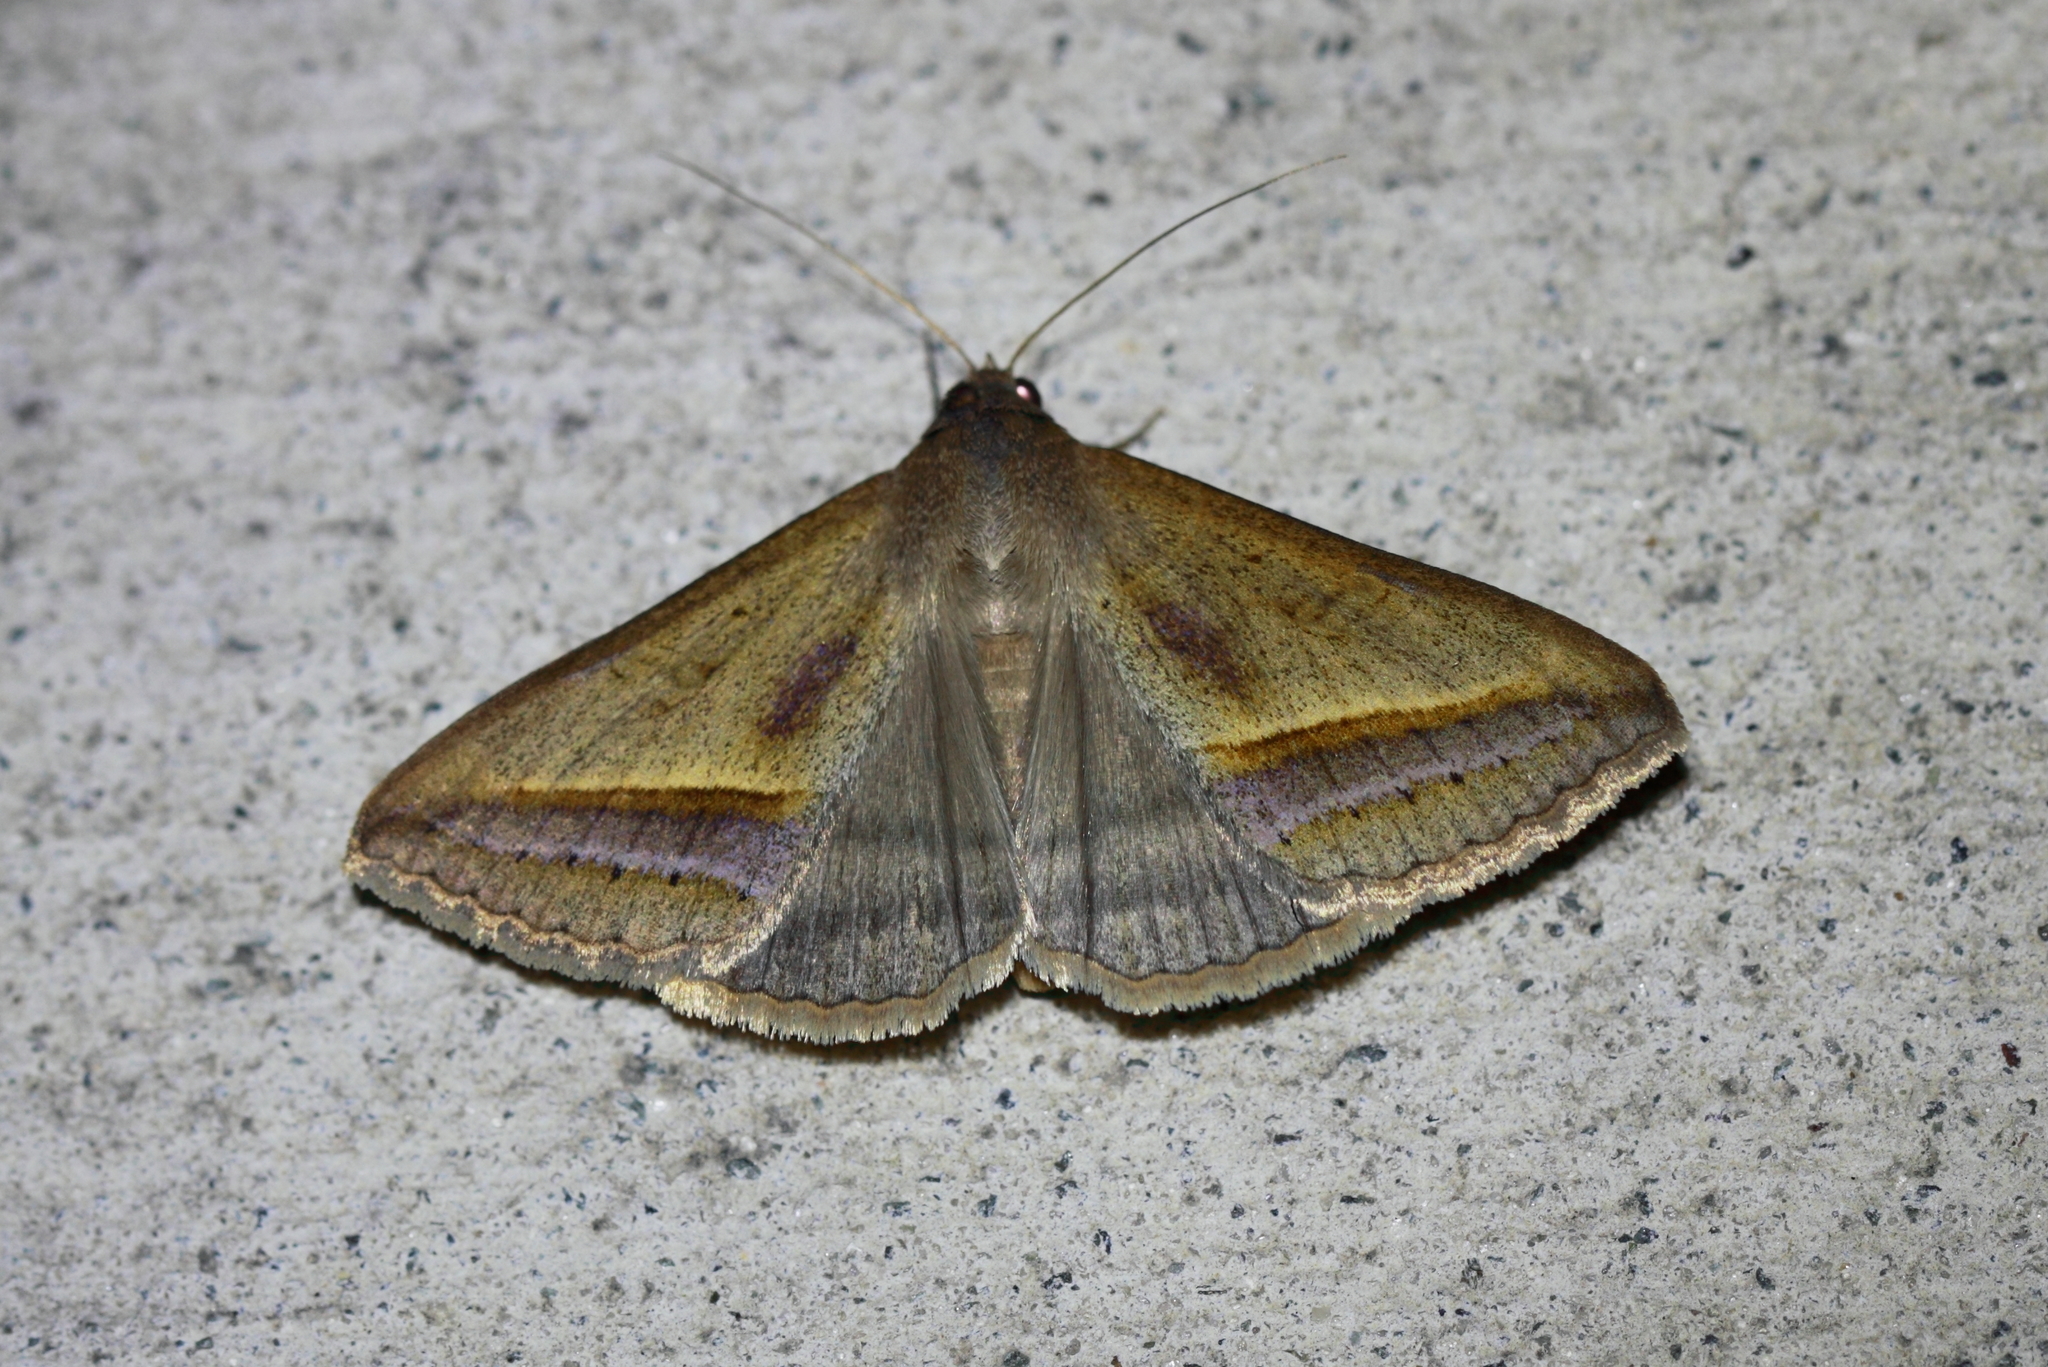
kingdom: Animalia
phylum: Arthropoda
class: Insecta
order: Lepidoptera
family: Erebidae
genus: Mocis
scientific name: Mocis frugalis
